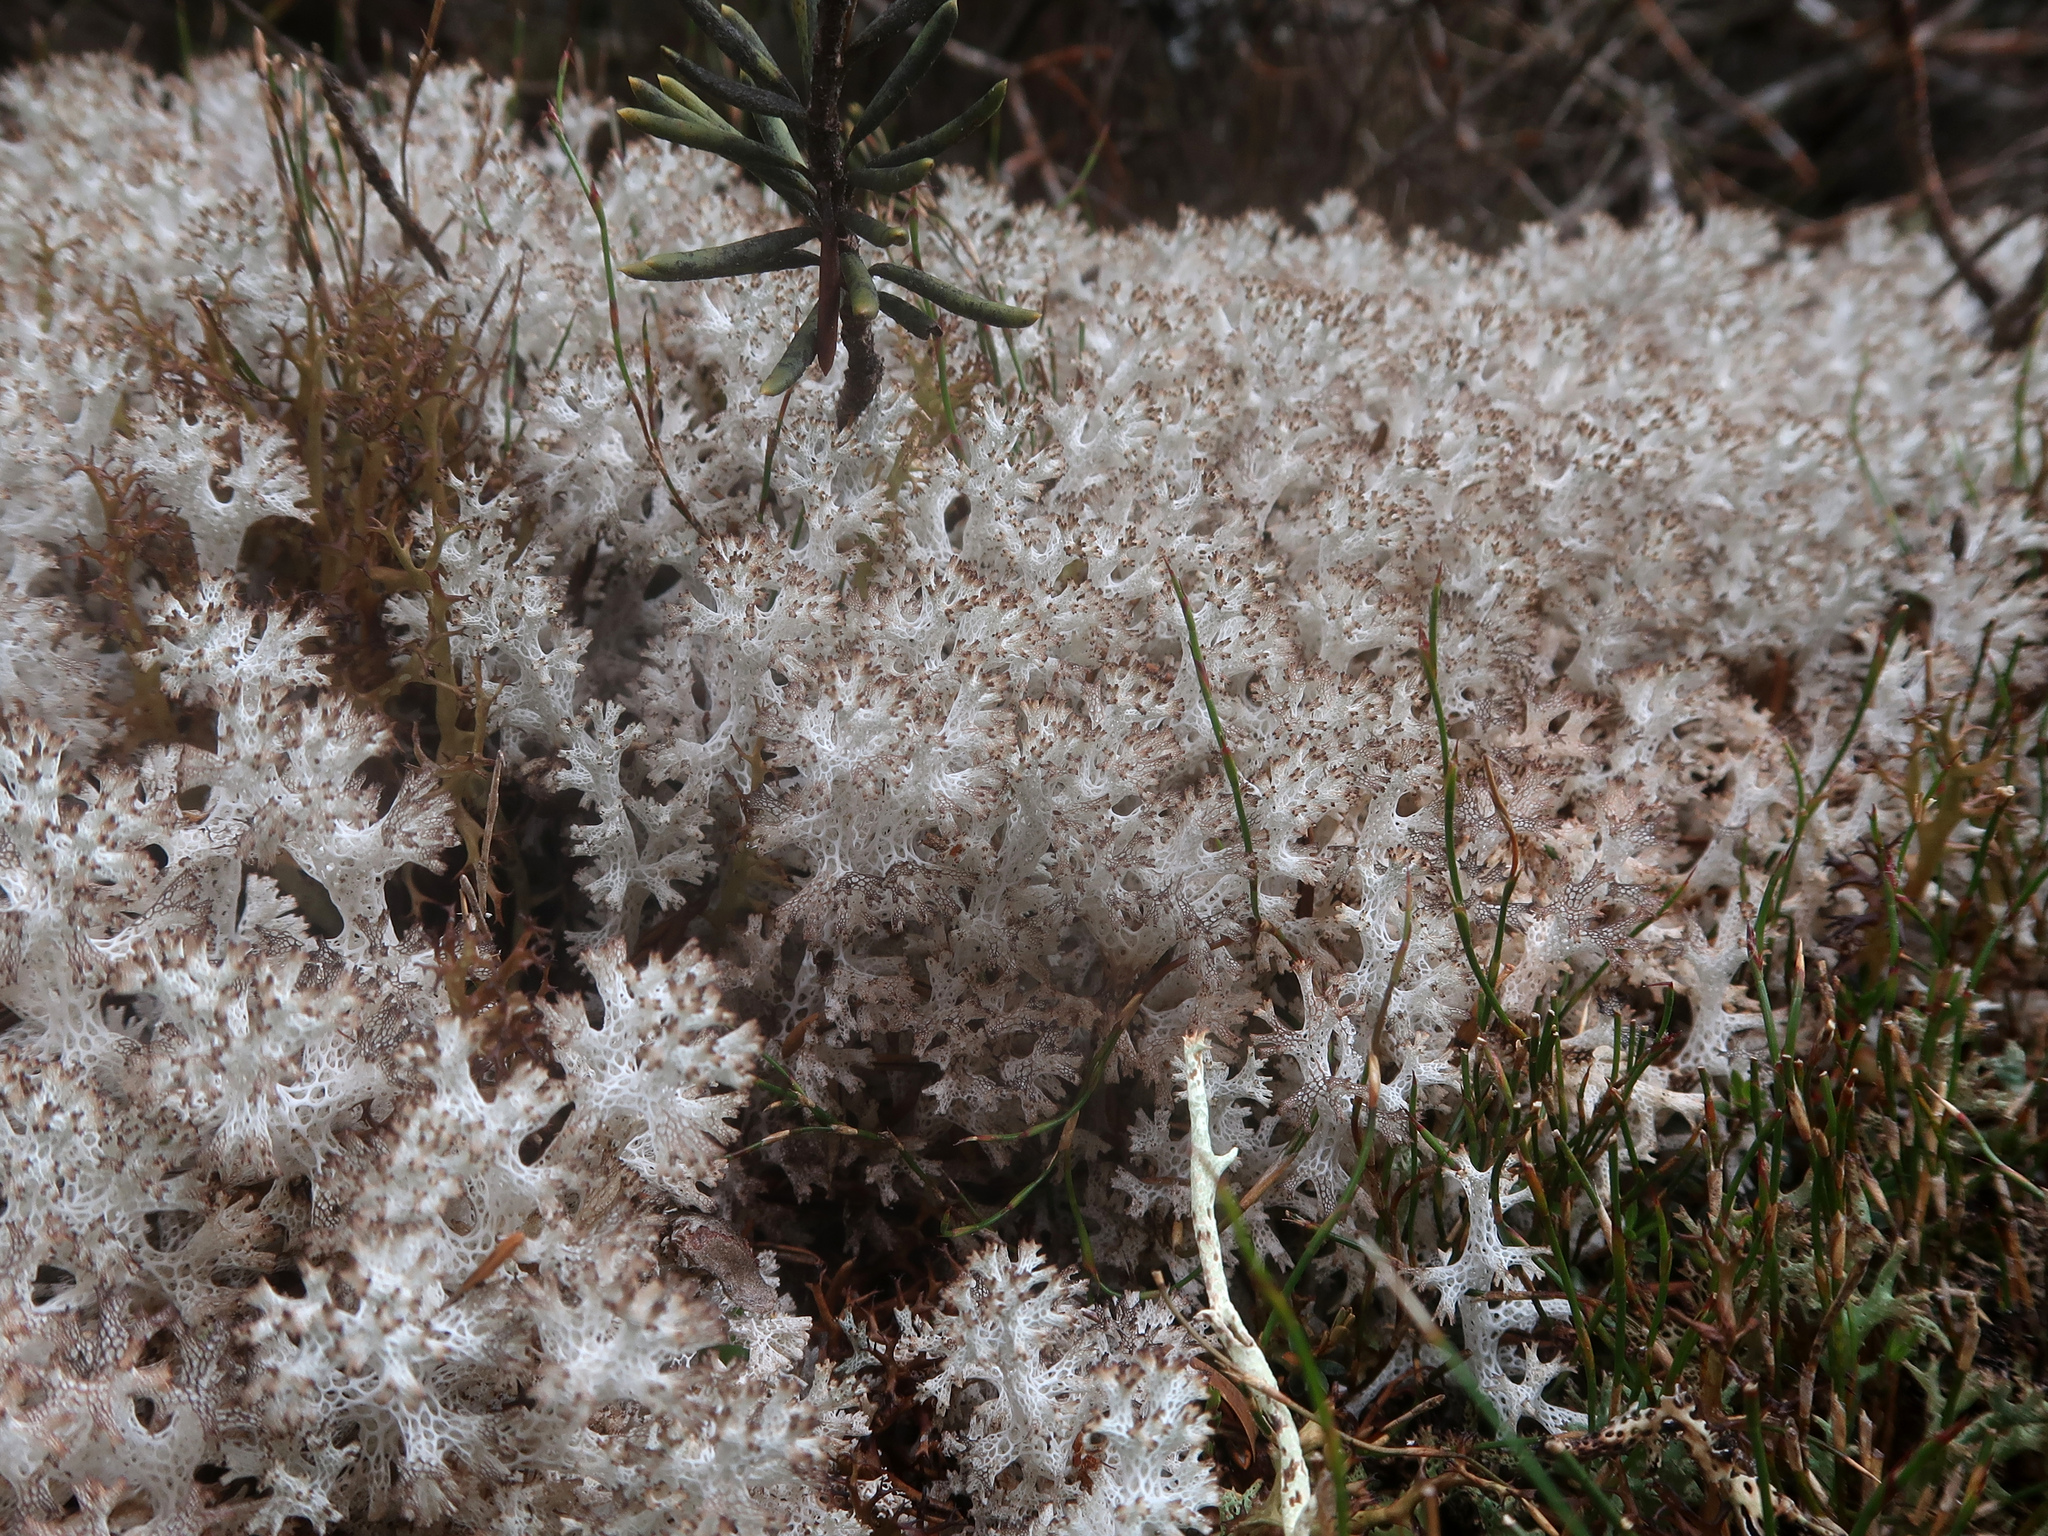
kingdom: Fungi
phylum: Ascomycota
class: Lecanoromycetes
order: Lecanorales
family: Cladoniaceae
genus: Pulchrocladia
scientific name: Pulchrocladia retipora
